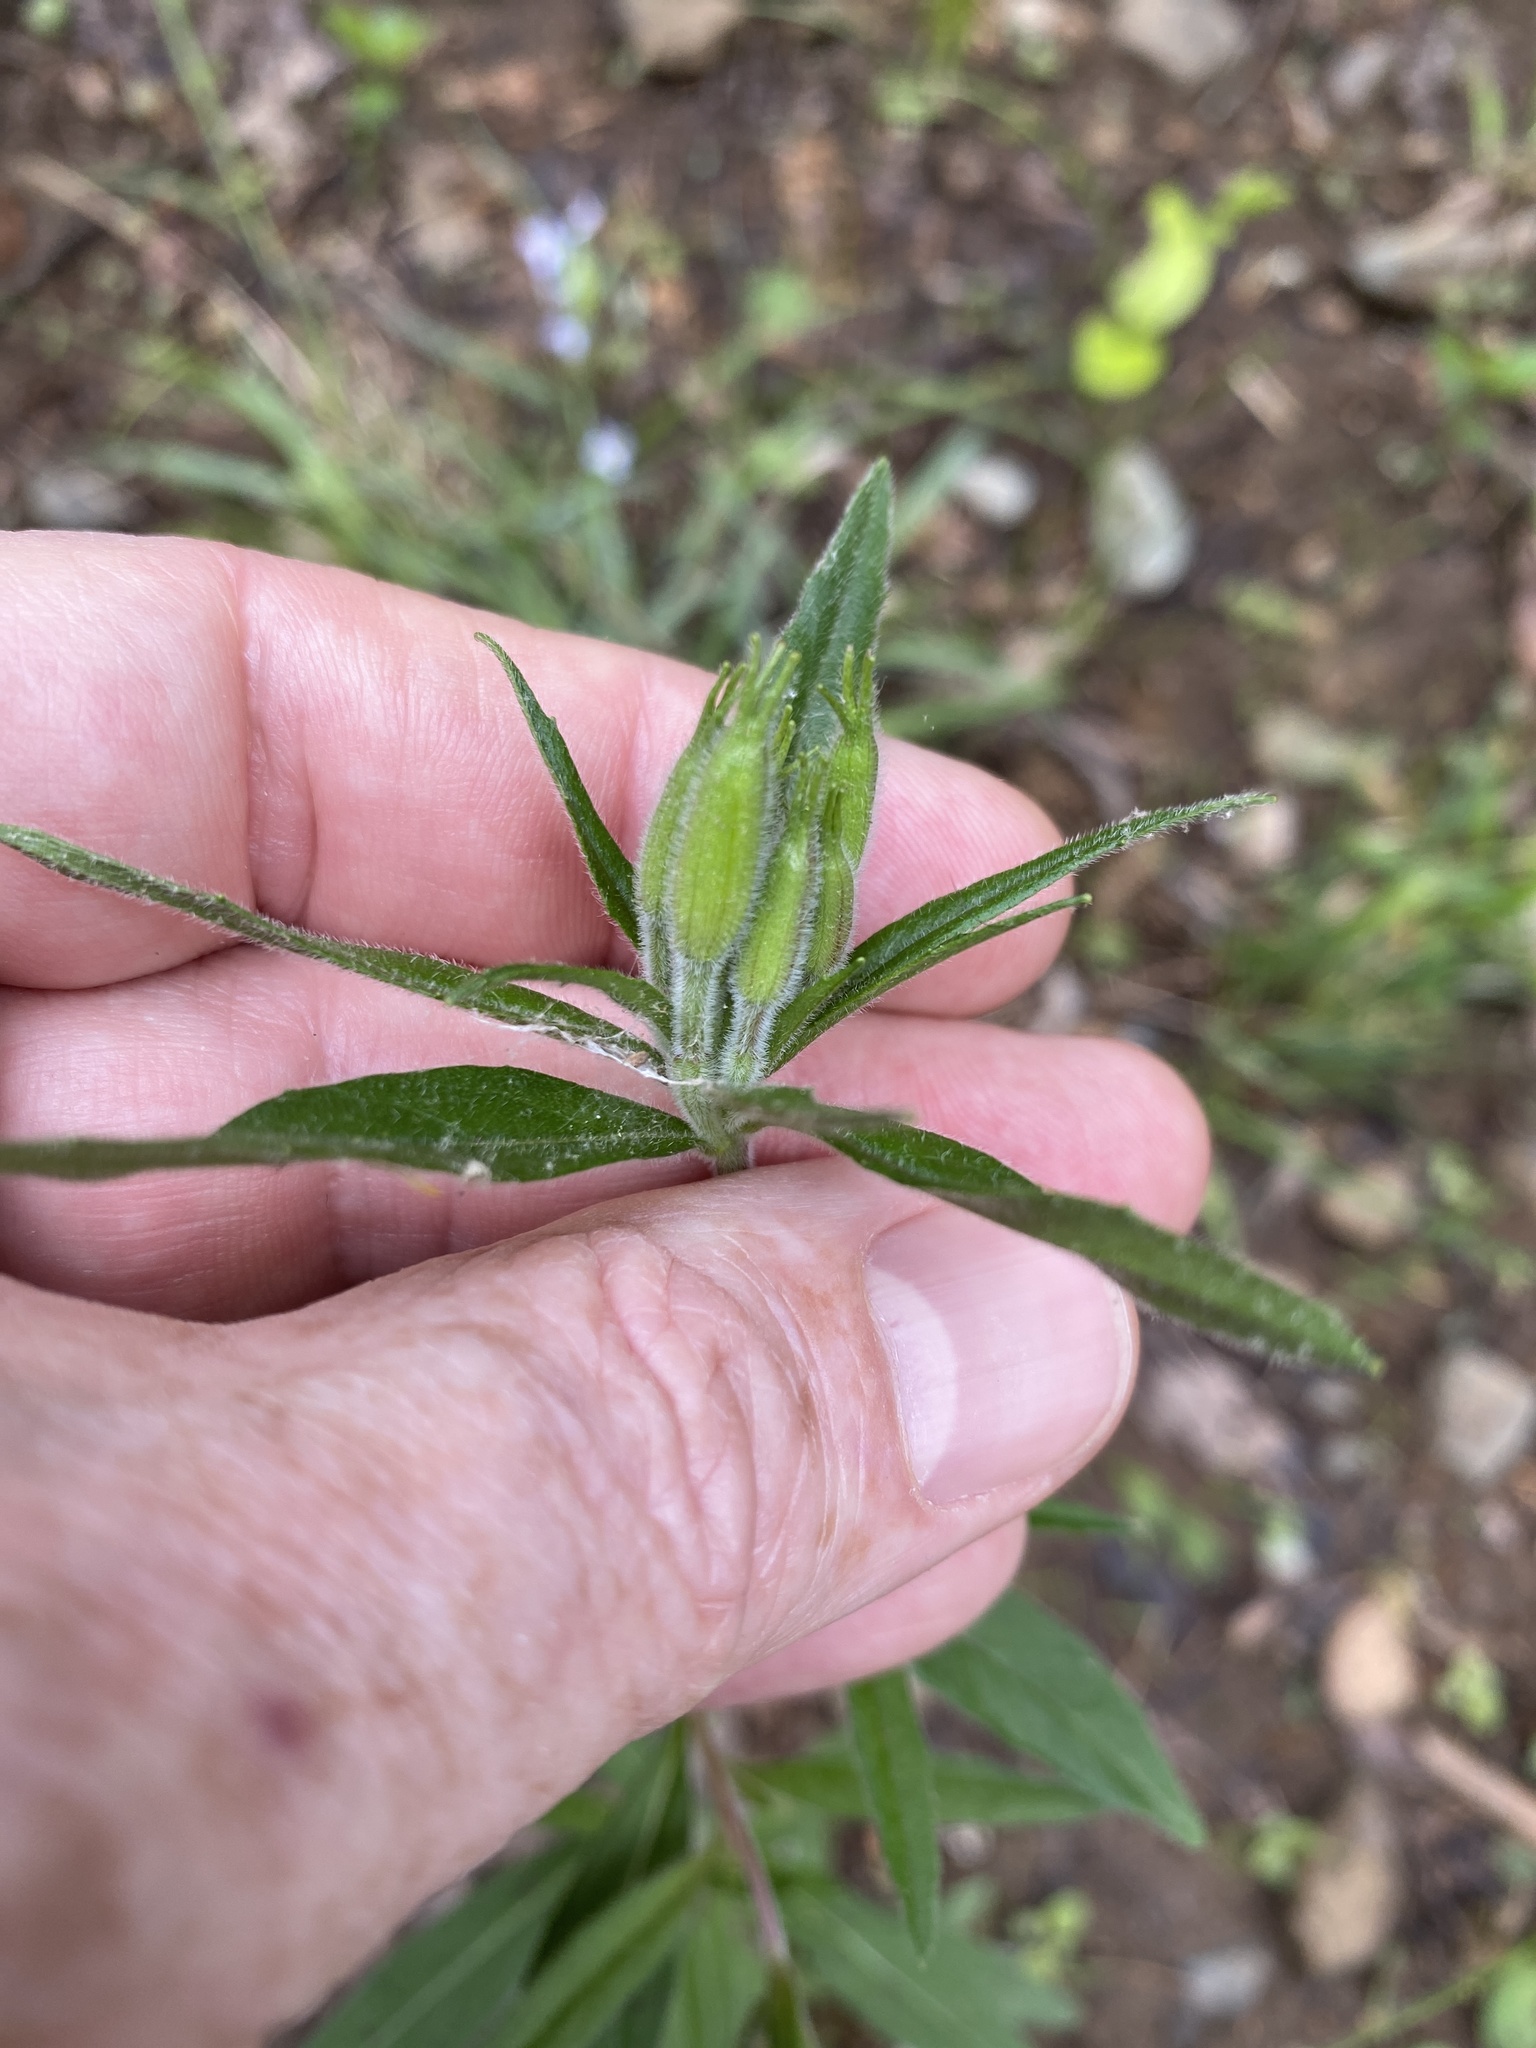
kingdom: Plantae
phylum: Tracheophyta
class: Magnoliopsida
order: Myrtales
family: Onagraceae
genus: Oenothera
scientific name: Oenothera fruticosa
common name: Southern sundrops
